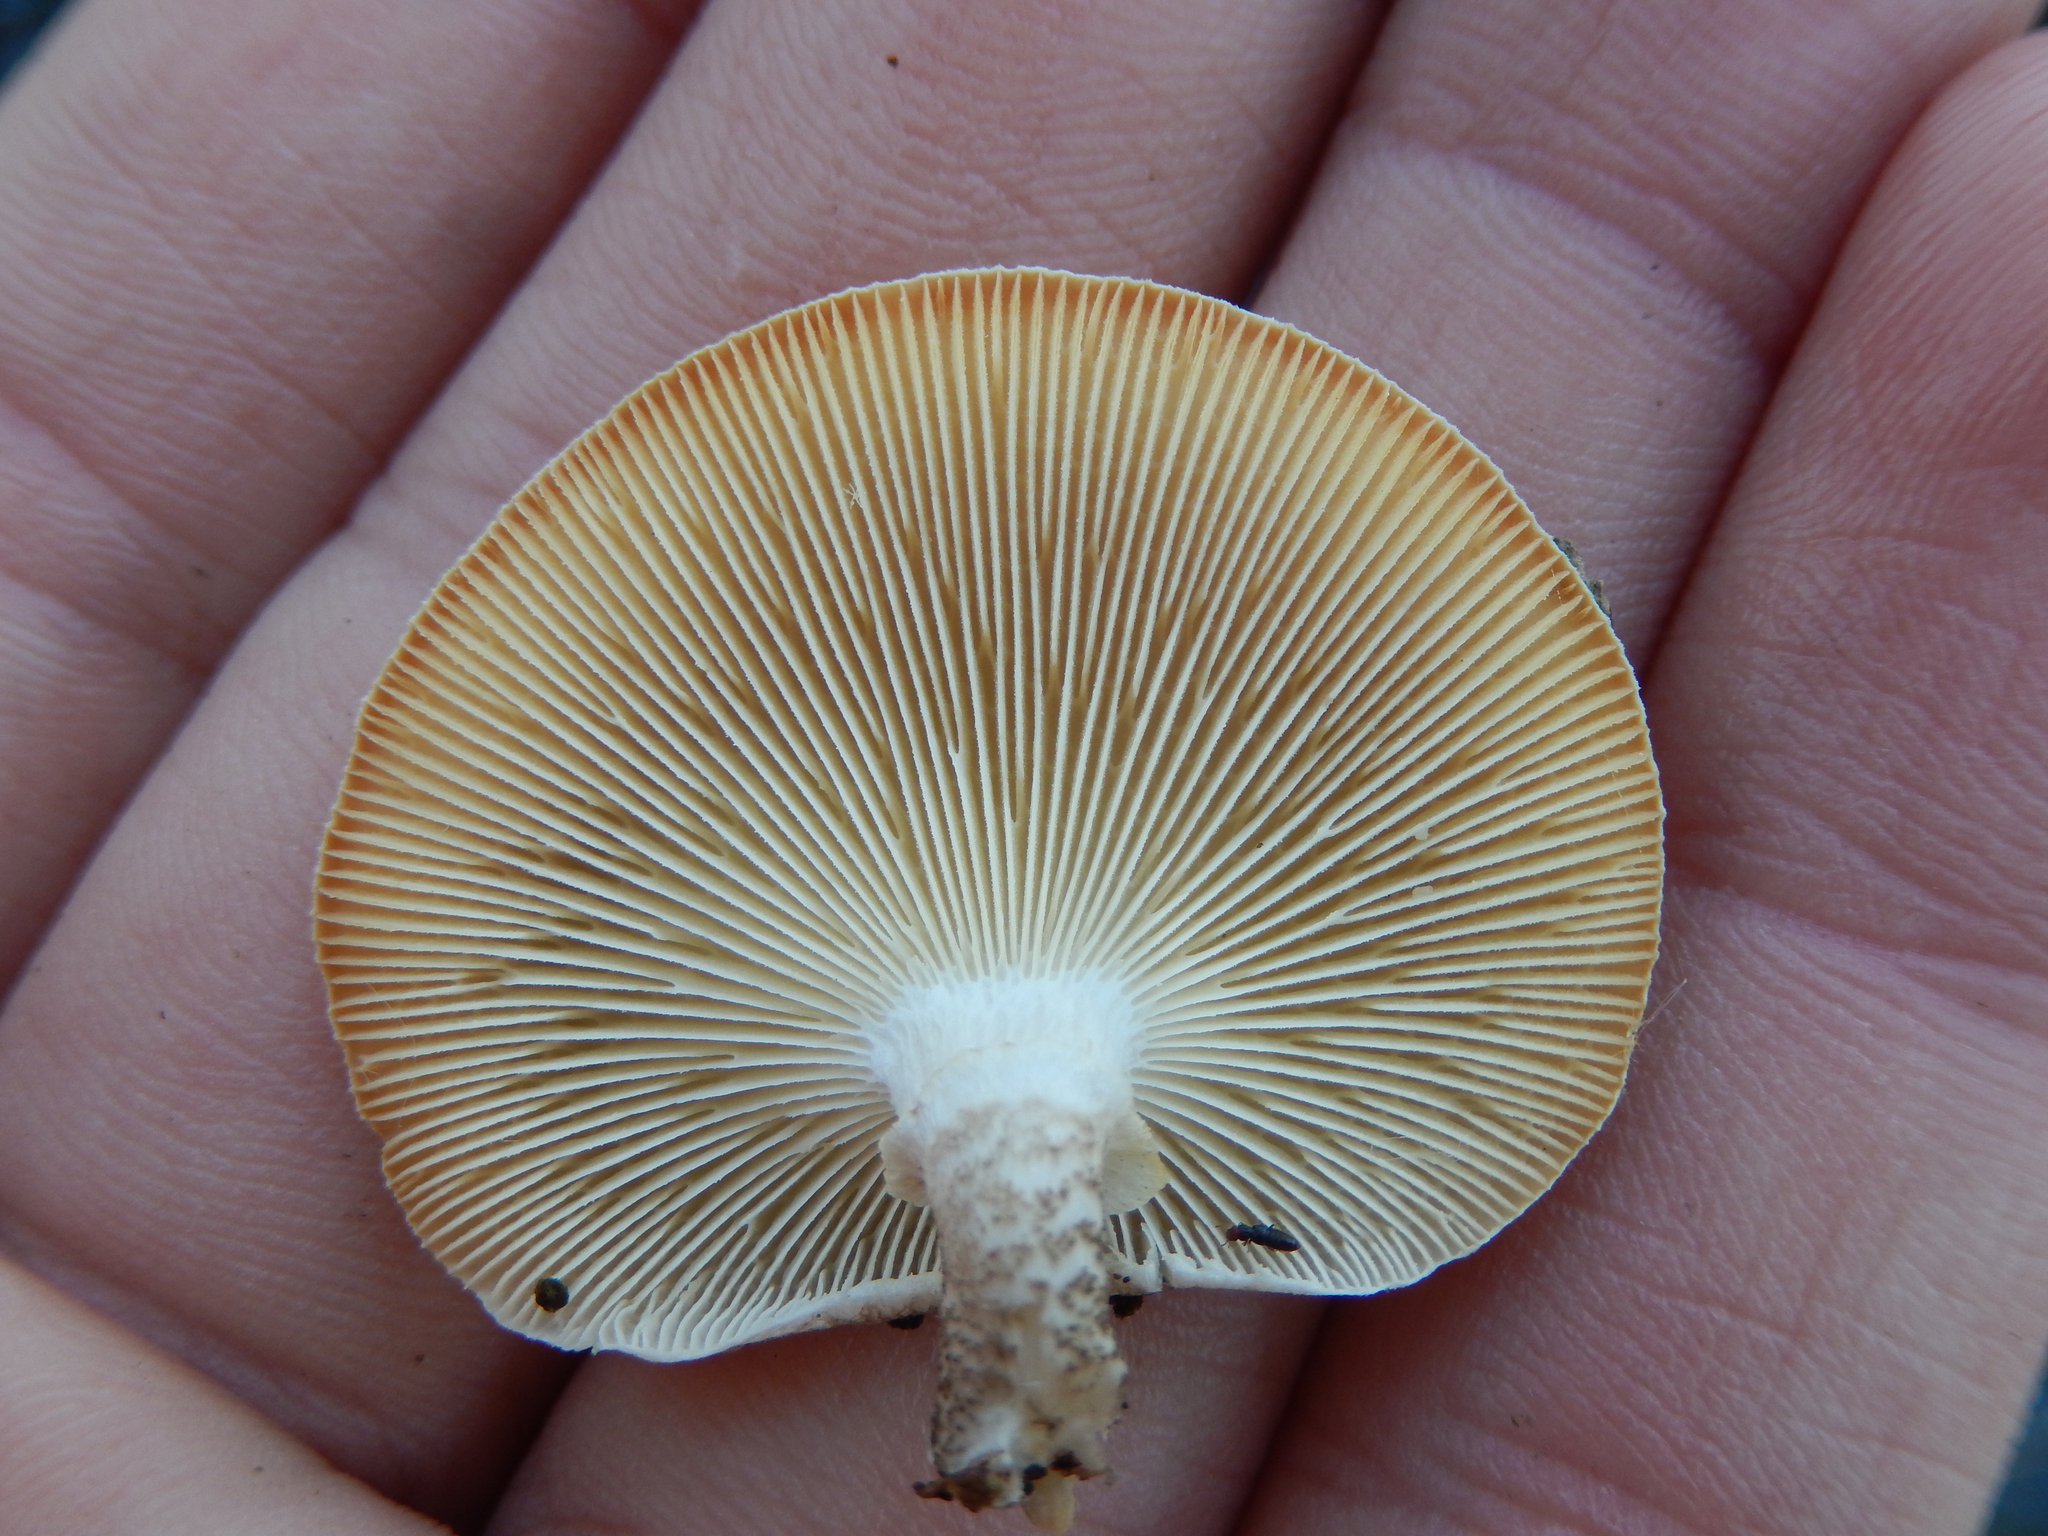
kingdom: Fungi
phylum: Basidiomycota
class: Agaricomycetes
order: Polyporales
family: Polyporaceae
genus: Lentinus
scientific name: Lentinus tigrinus
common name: Tiger sawgill
